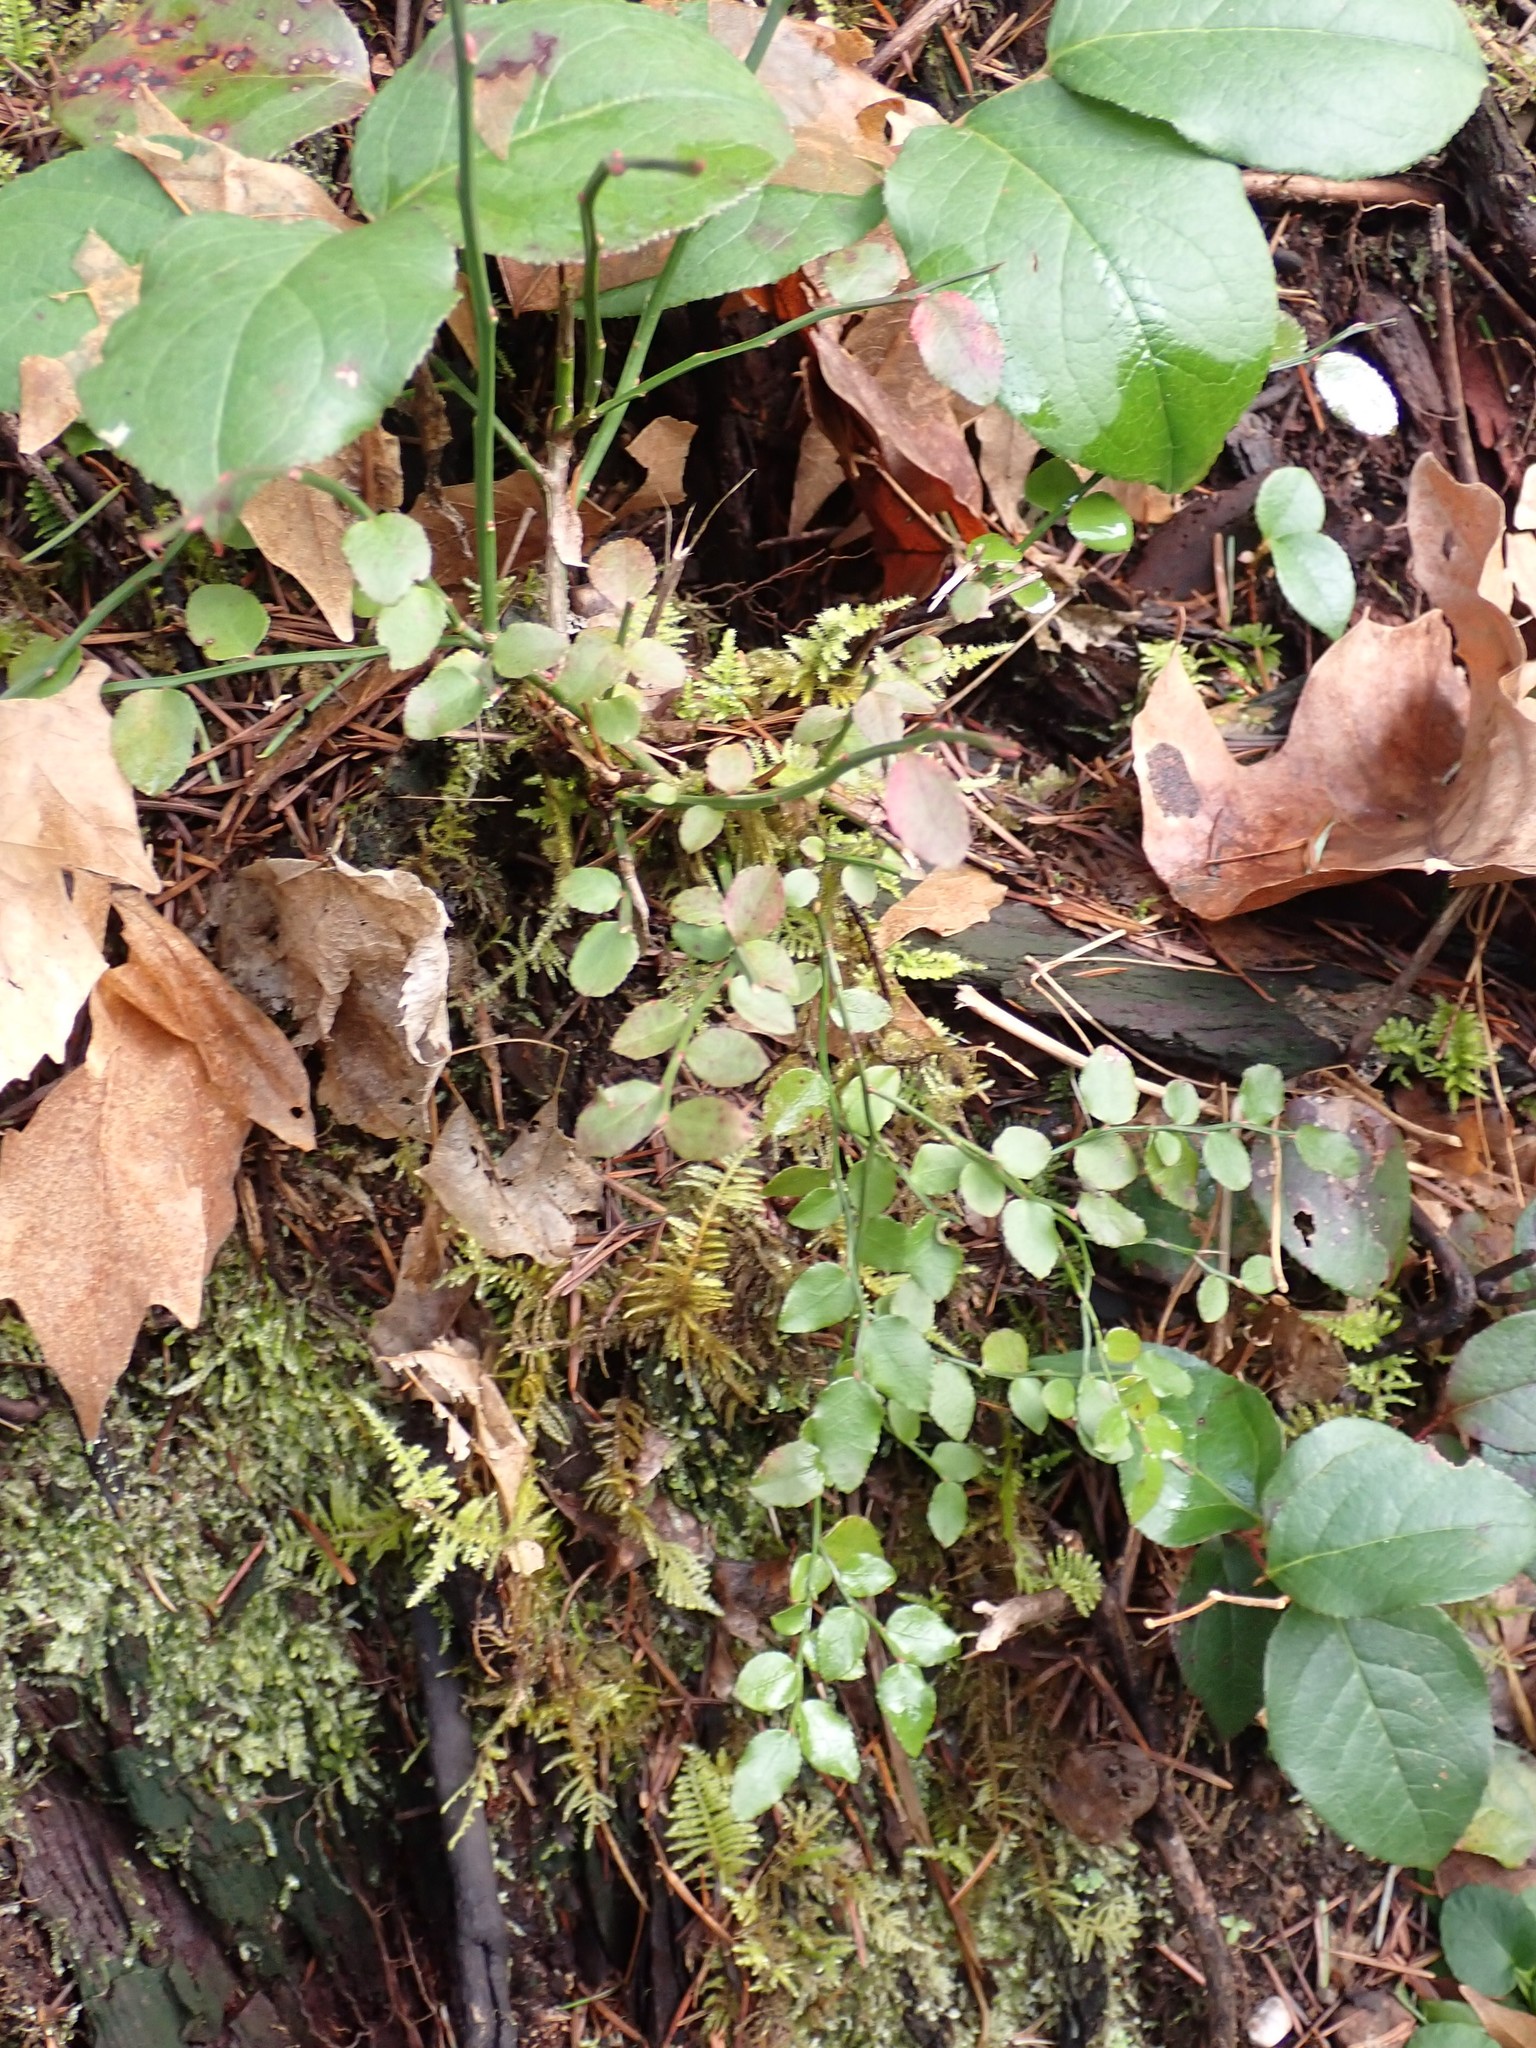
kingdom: Plantae
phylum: Tracheophyta
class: Magnoliopsida
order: Ericales
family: Ericaceae
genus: Vaccinium
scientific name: Vaccinium parvifolium
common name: Red-huckleberry
